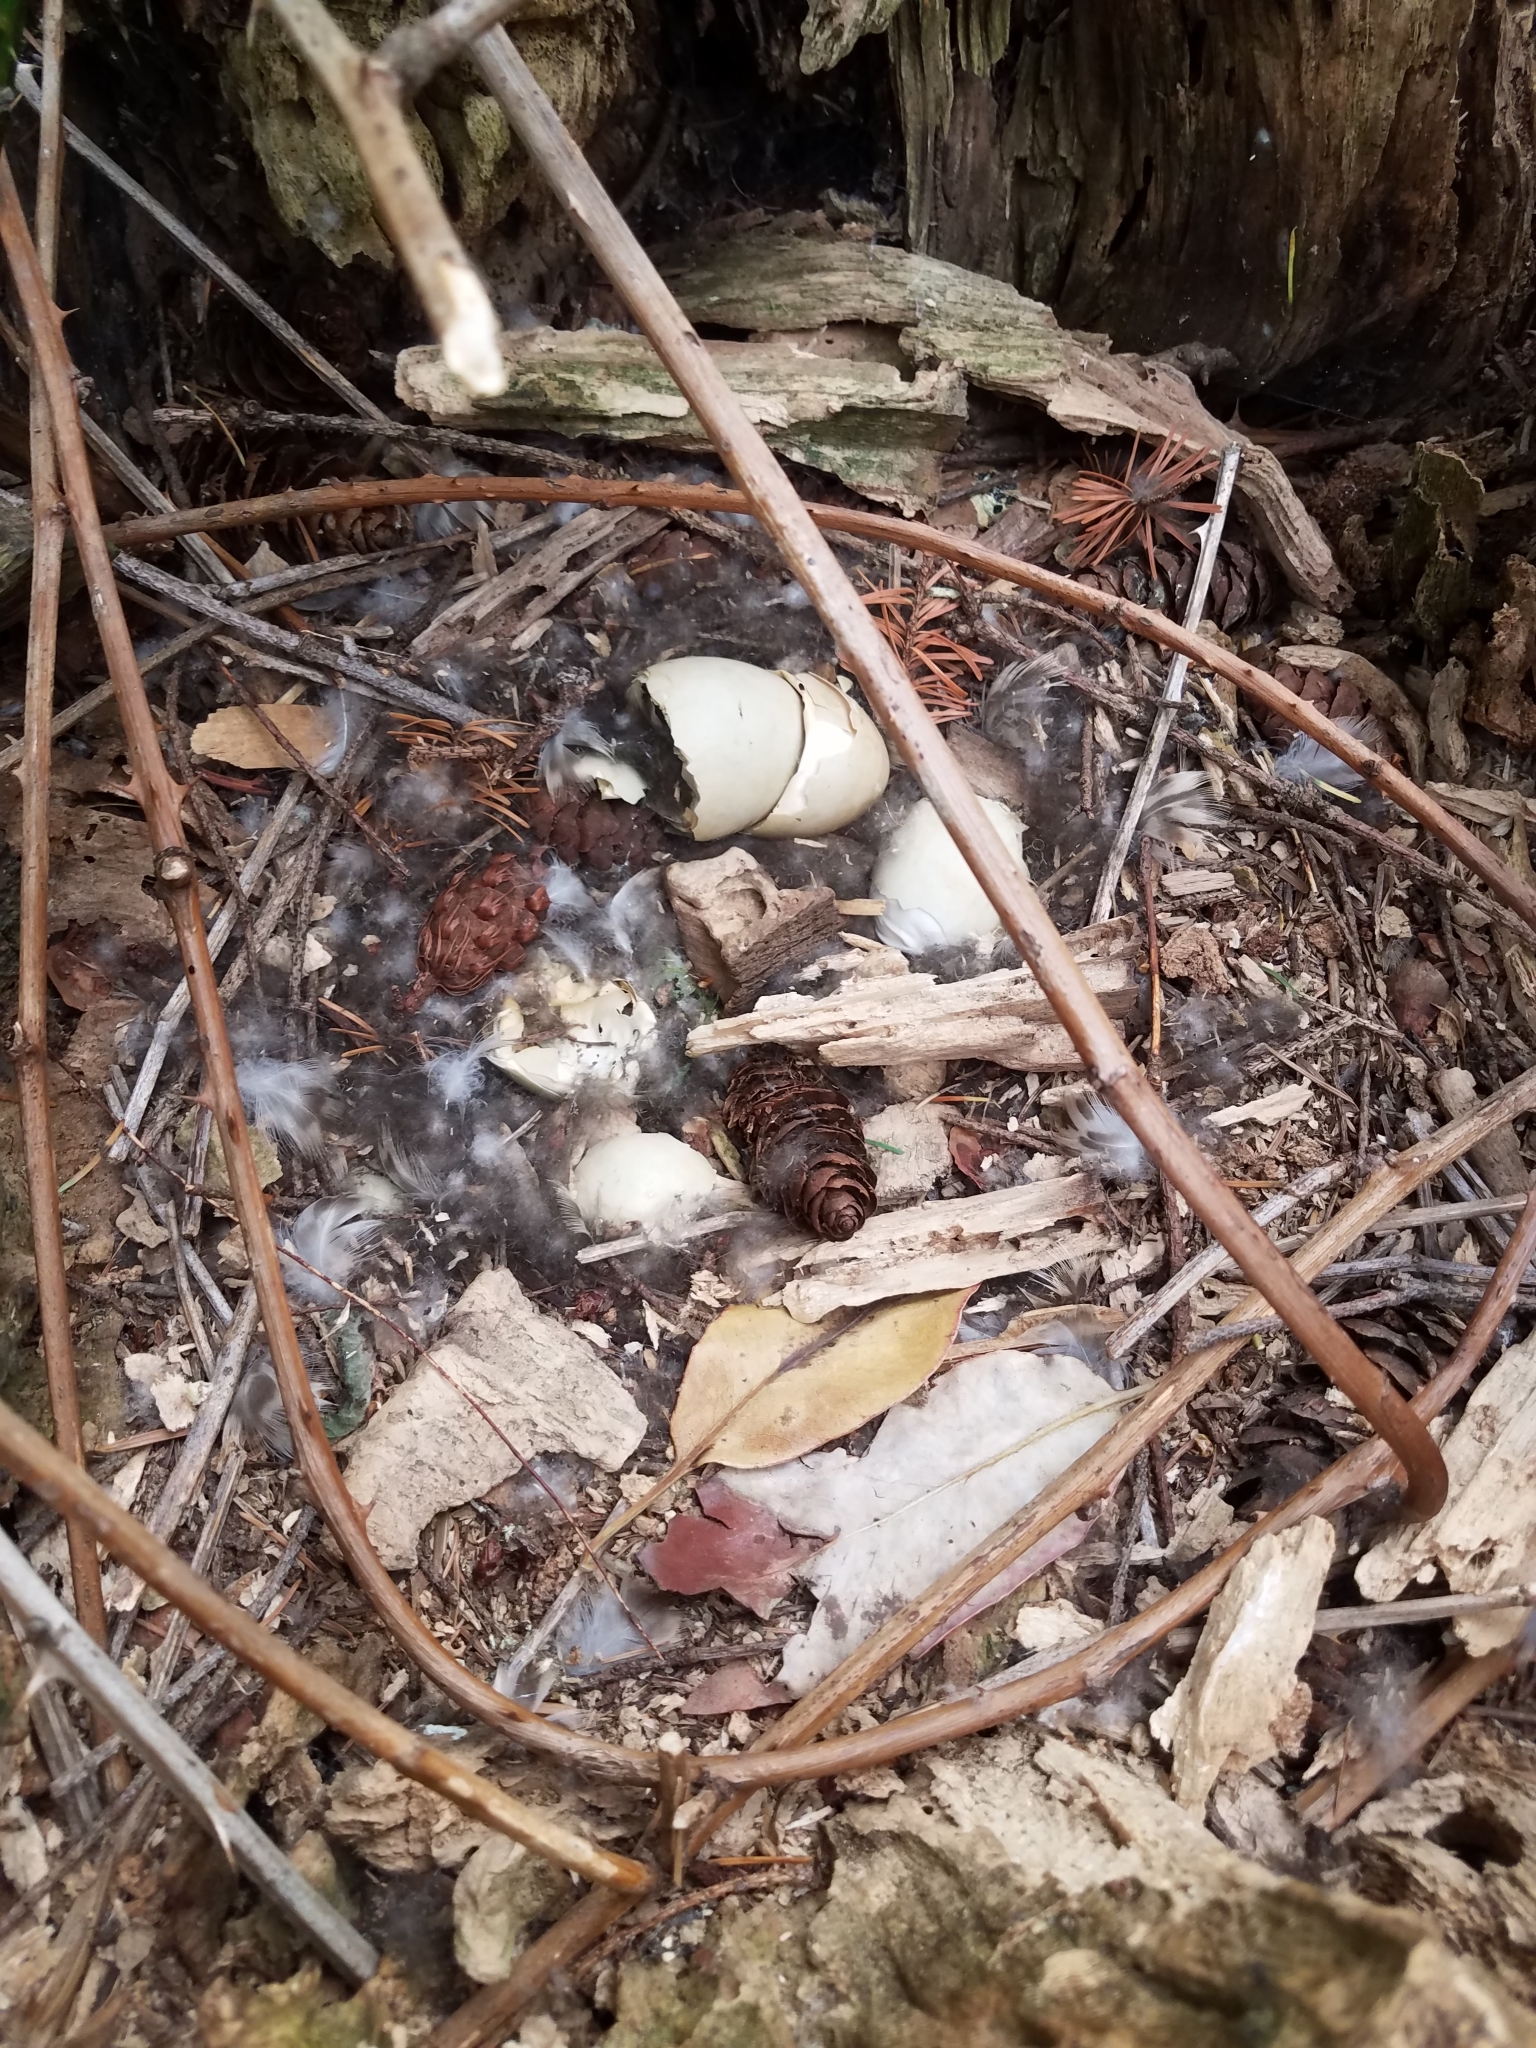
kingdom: Animalia
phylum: Chordata
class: Aves
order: Anseriformes
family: Anatidae
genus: Anas
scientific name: Anas platyrhynchos
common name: Mallard
